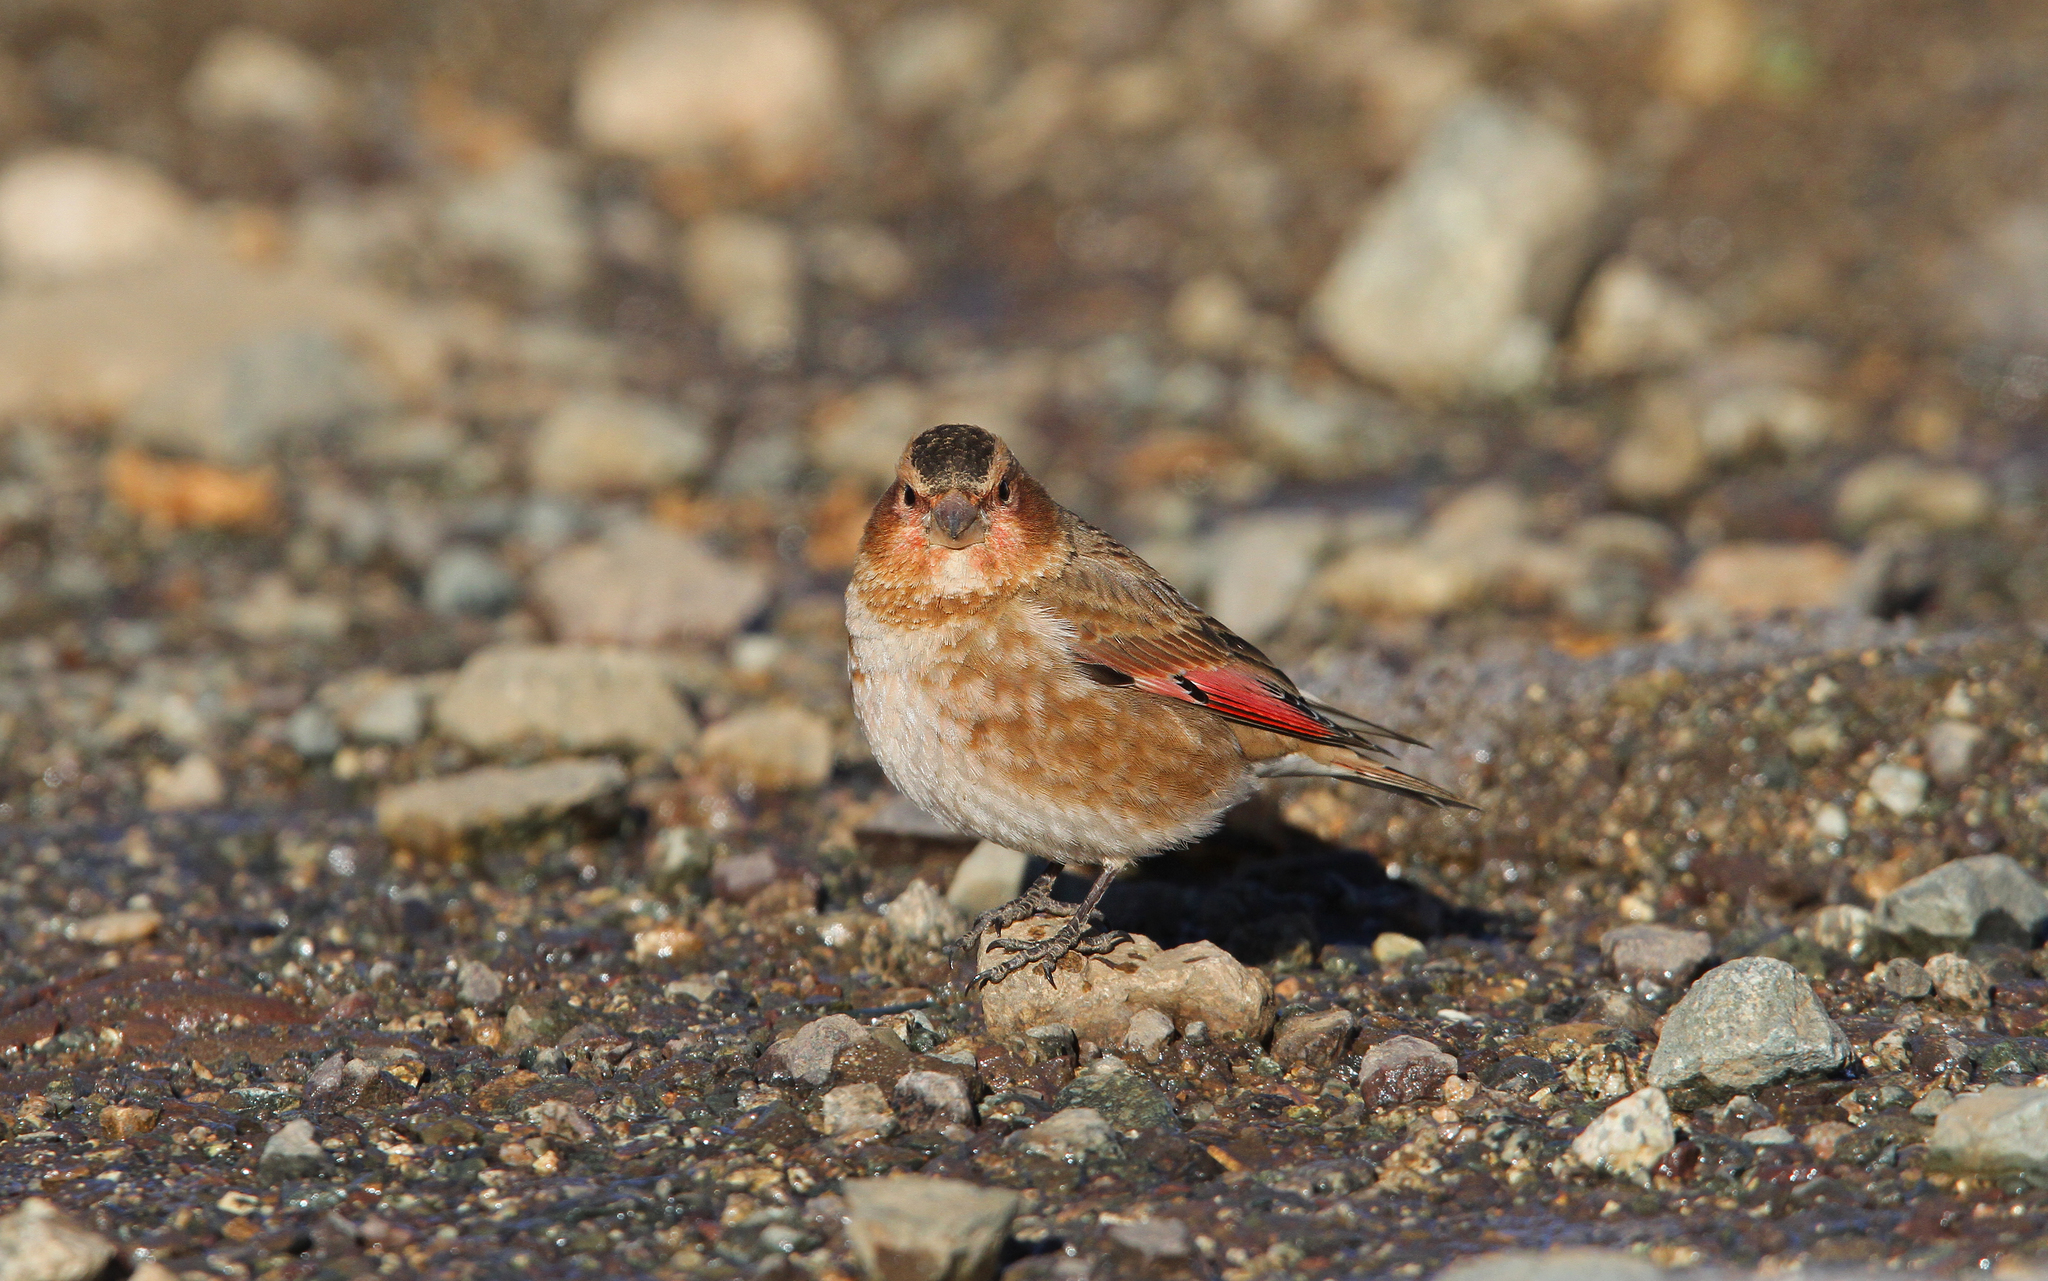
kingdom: Animalia
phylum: Chordata
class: Aves
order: Passeriformes
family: Fringillidae
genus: Rhodopechys
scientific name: Rhodopechys sanguineus
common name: Crimson-winged finch
